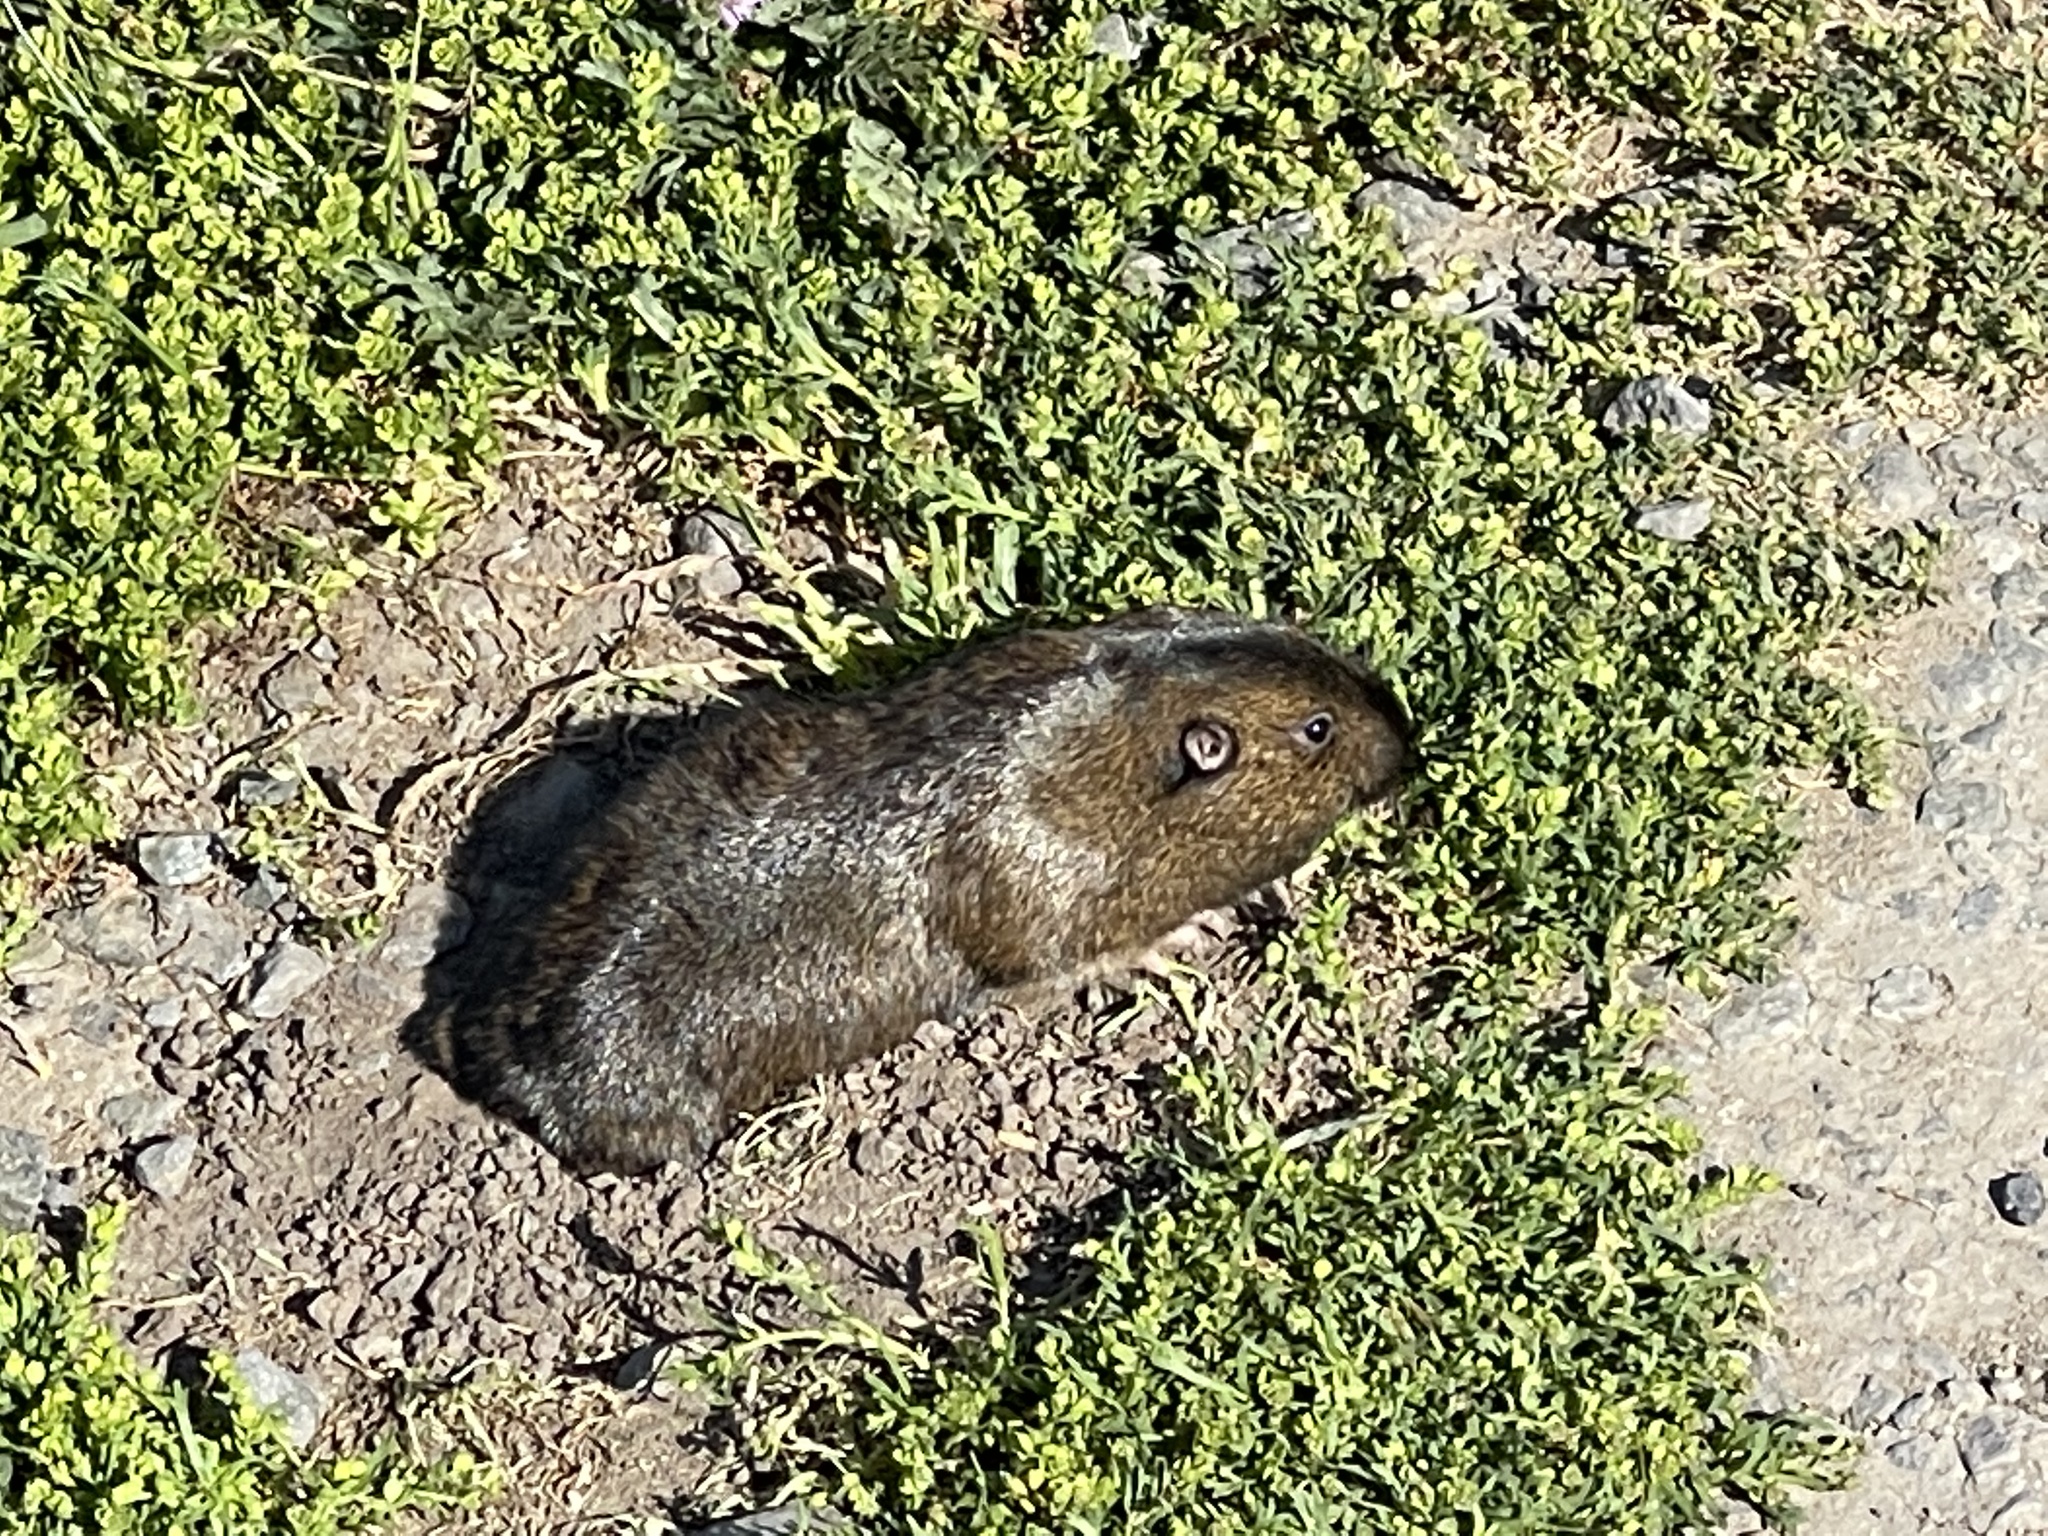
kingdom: Animalia
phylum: Chordata
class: Mammalia
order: Rodentia
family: Geomyidae
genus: Thomomys
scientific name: Thomomys bottae
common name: Botta's pocket gopher
